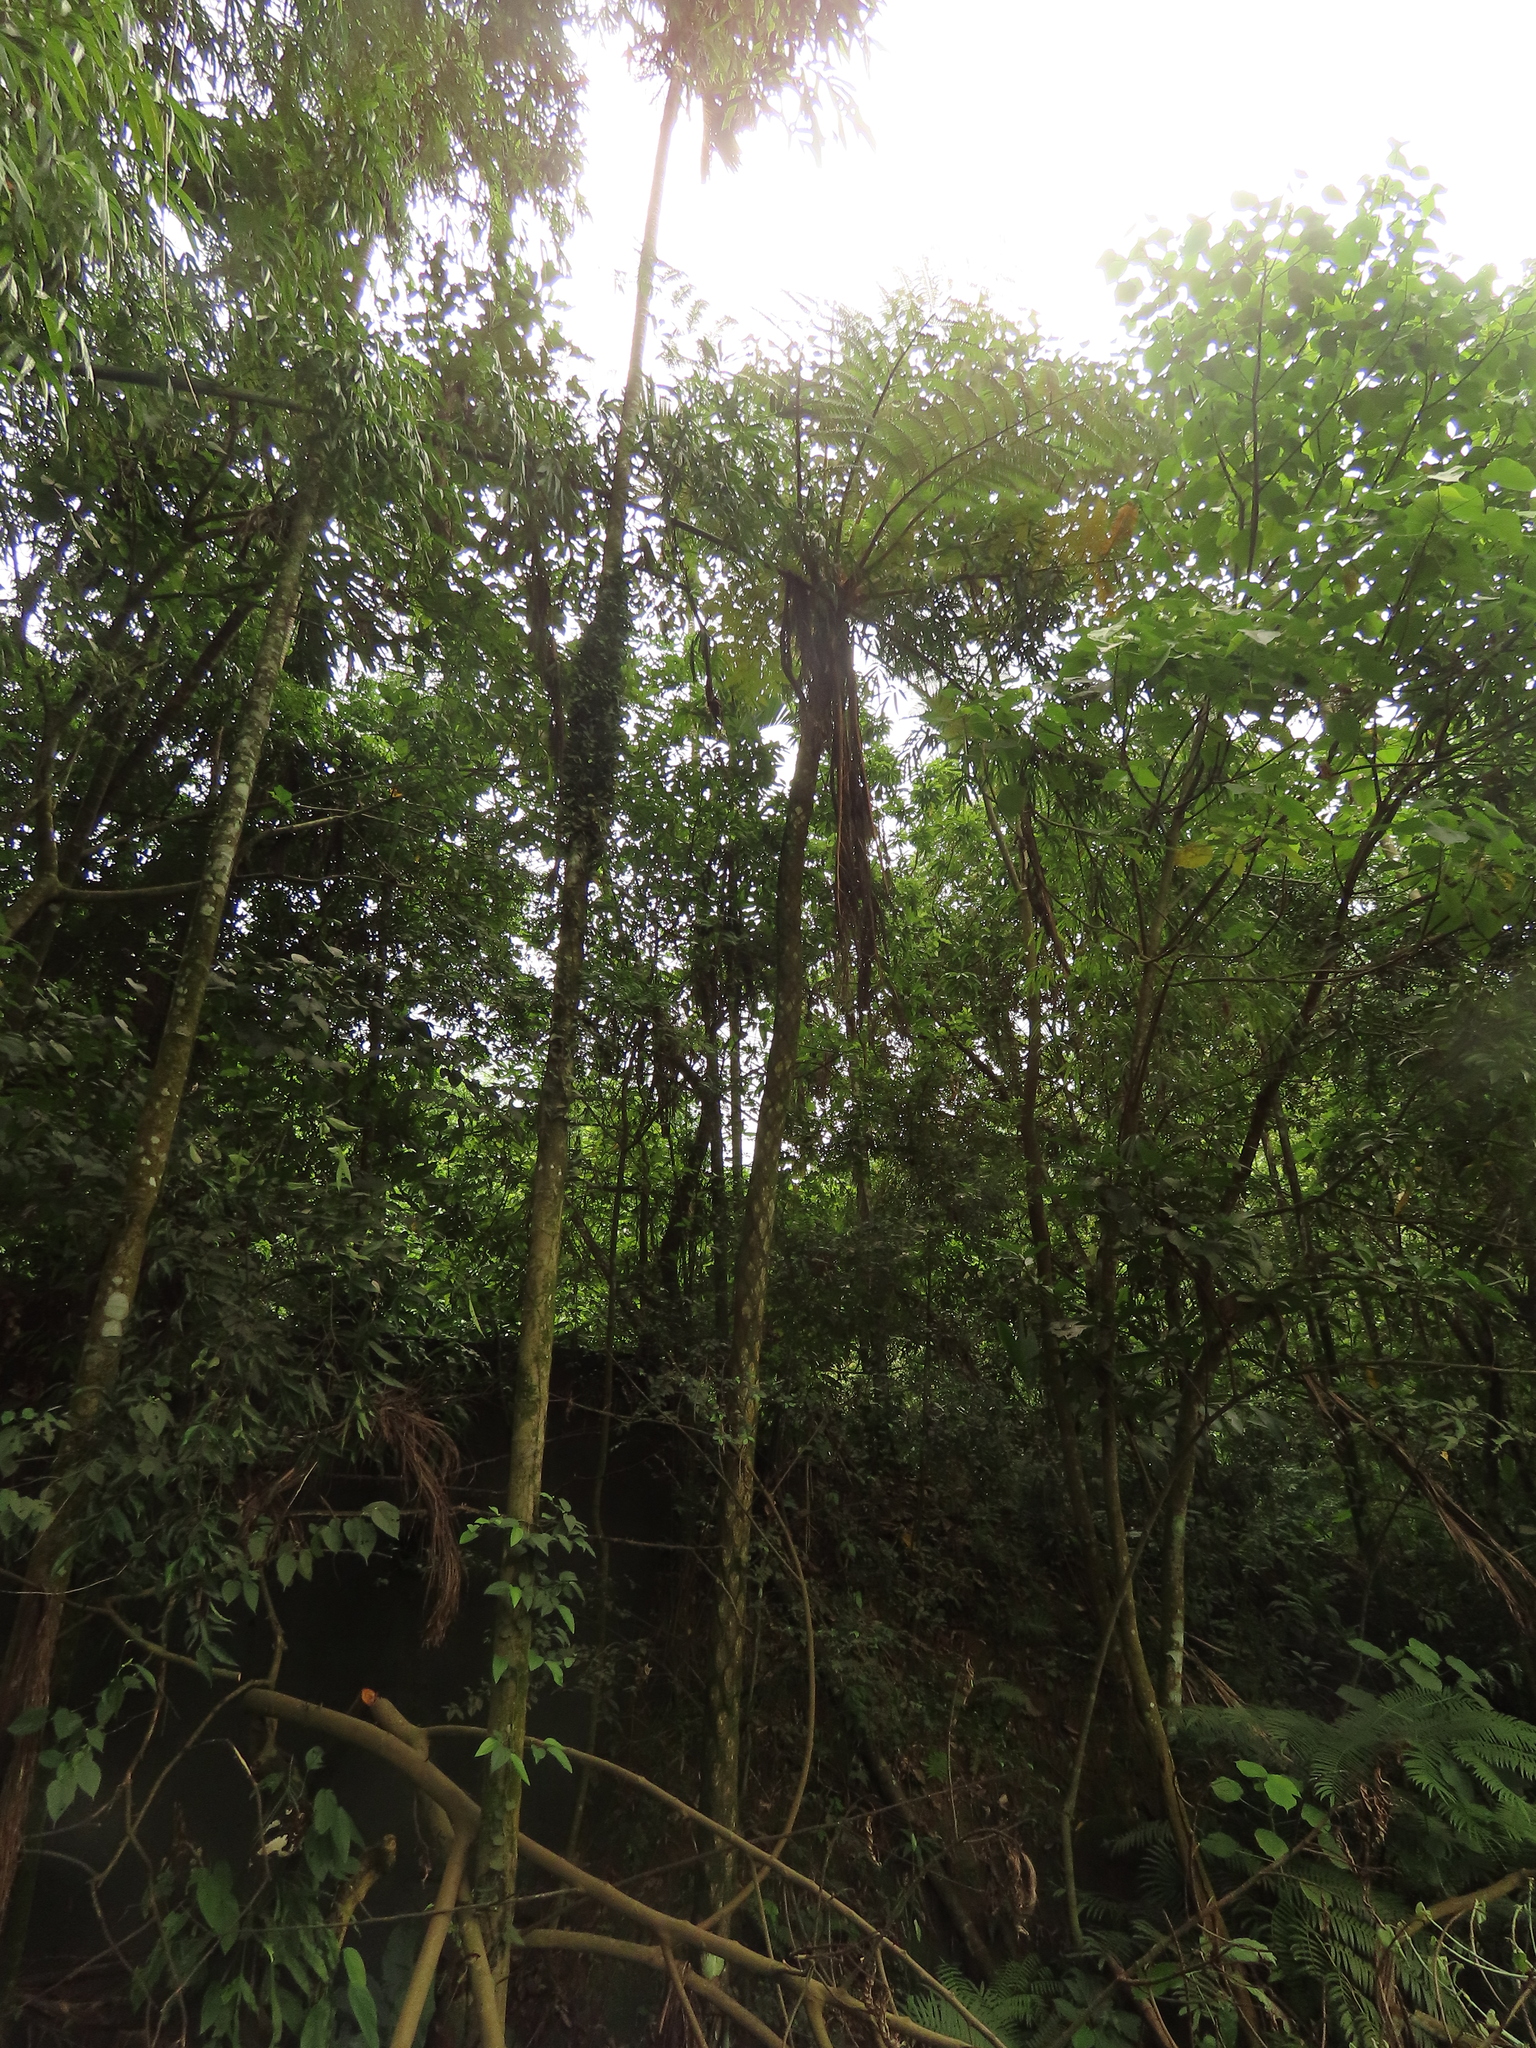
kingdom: Plantae
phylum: Tracheophyta
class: Polypodiopsida
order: Cyatheales
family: Cyatheaceae
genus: Alsophila
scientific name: Alsophila lepifera
